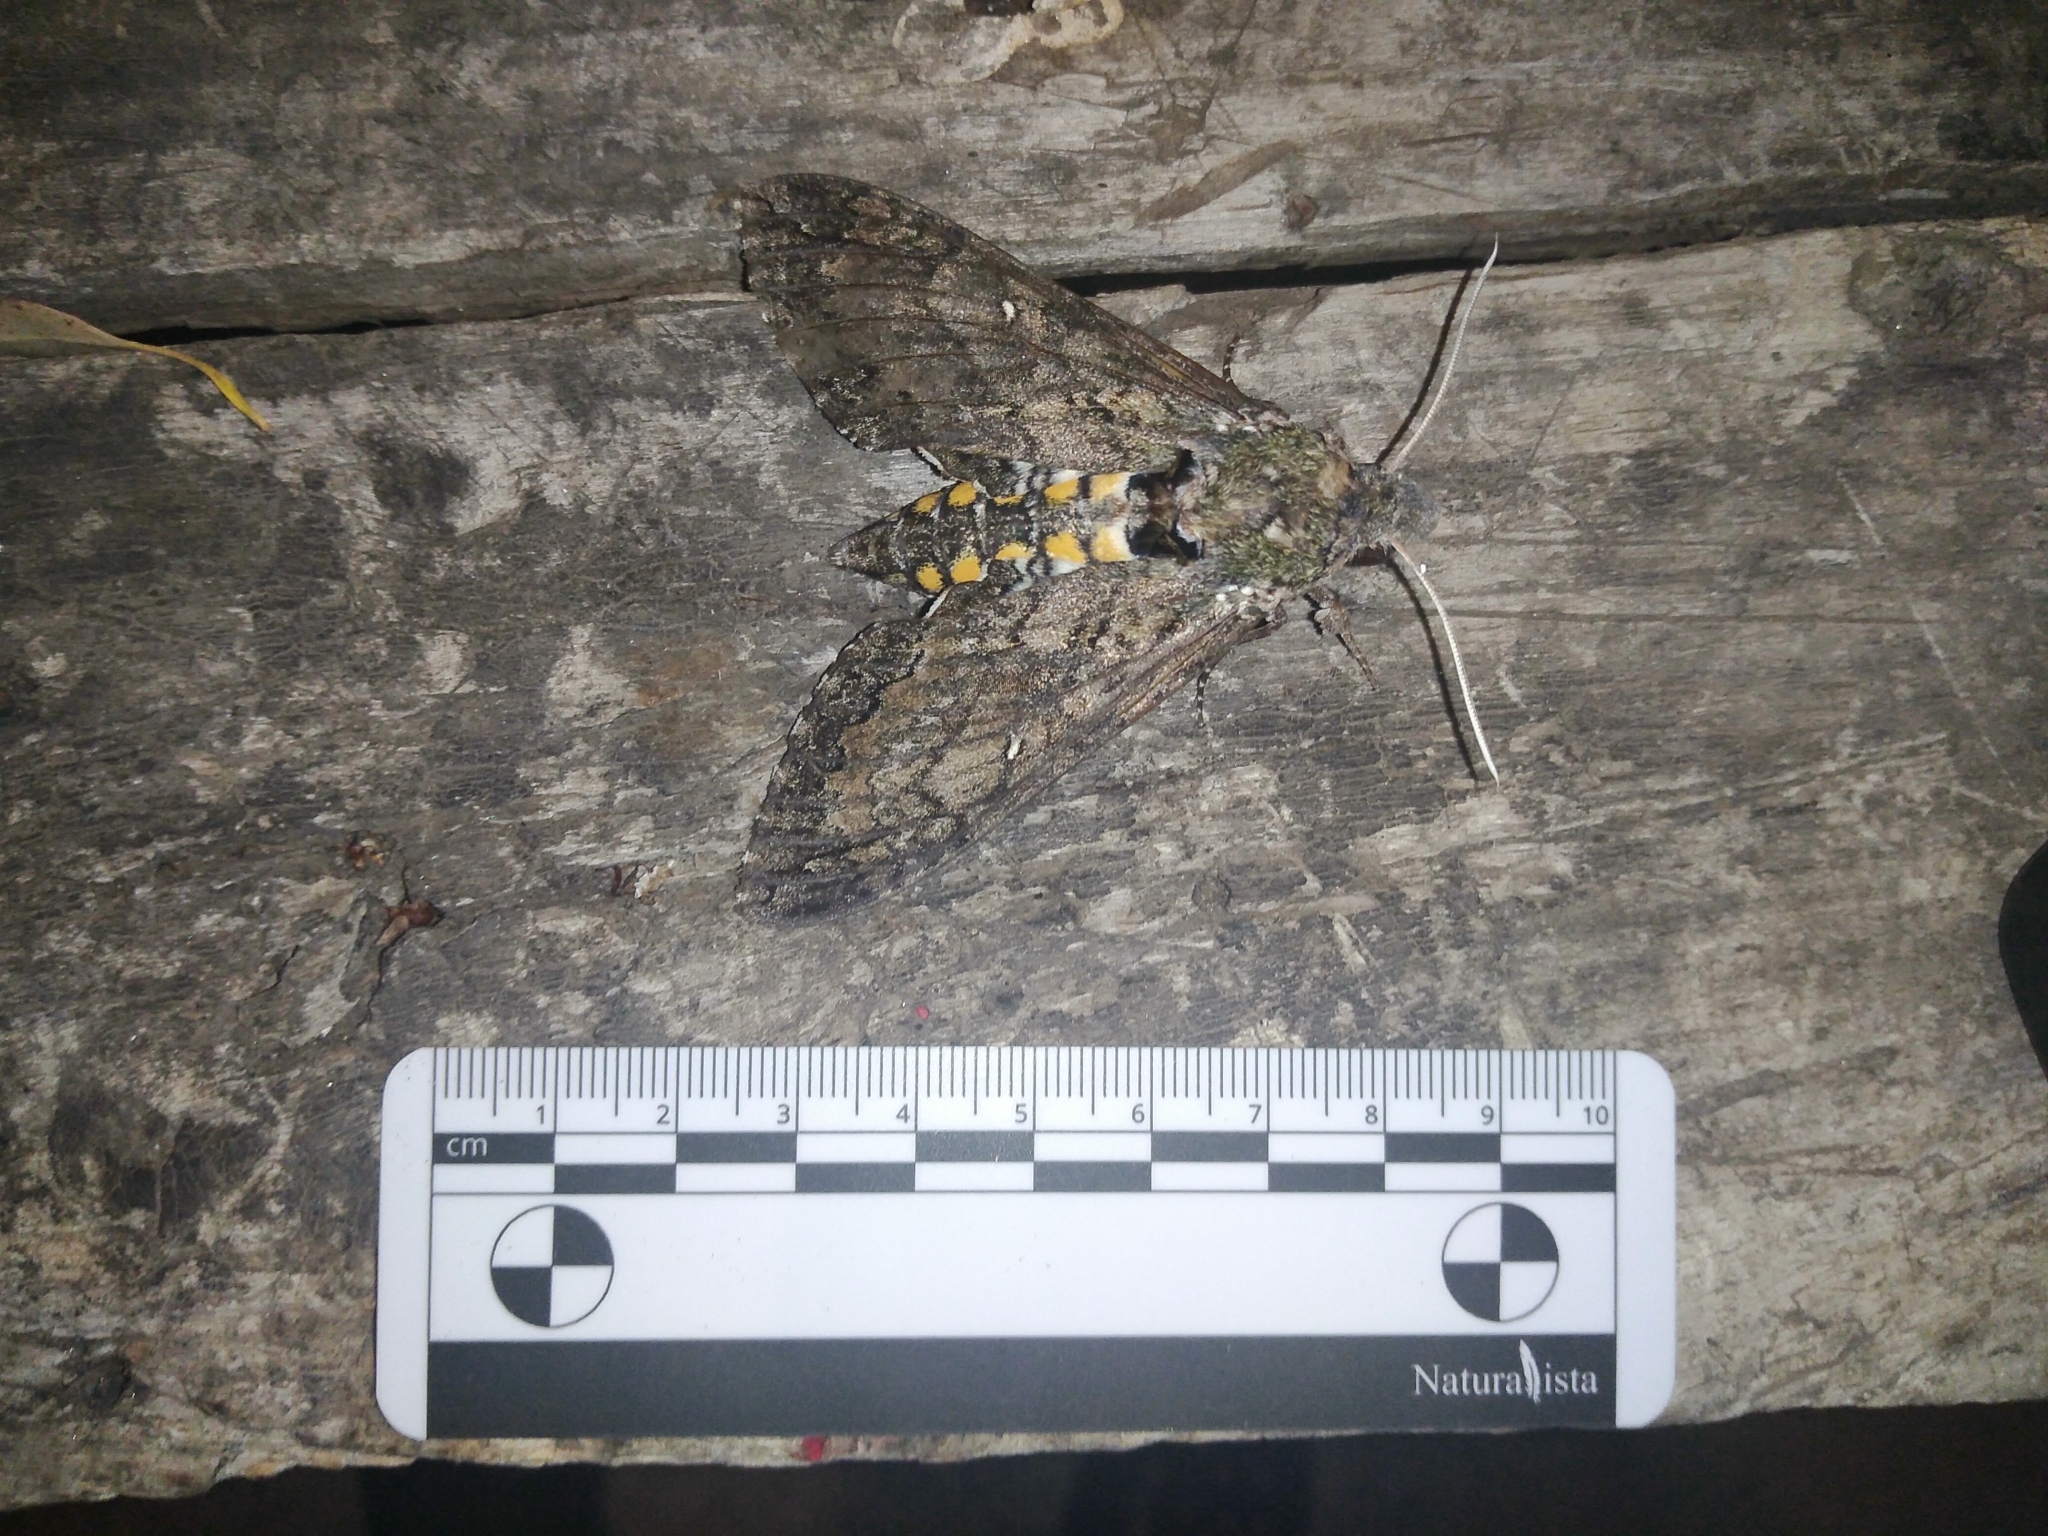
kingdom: Animalia
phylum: Arthropoda
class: Insecta
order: Lepidoptera
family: Sphingidae
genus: Manduca
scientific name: Manduca afflicta
